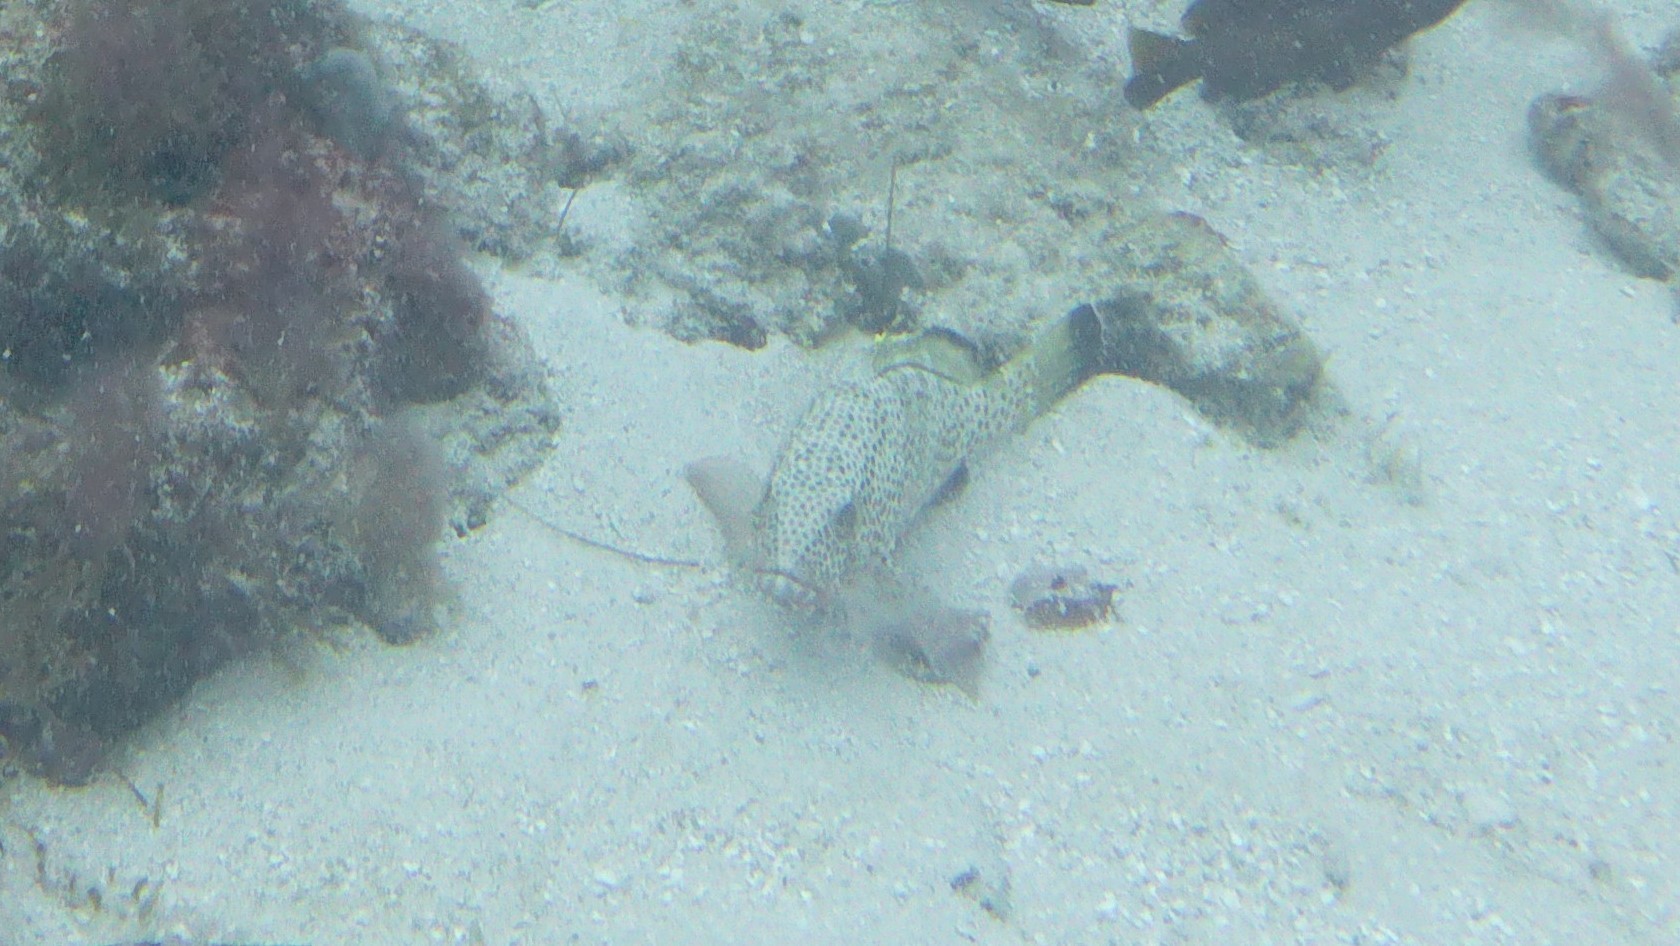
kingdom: Animalia
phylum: Chordata
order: Perciformes
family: Serranidae
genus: Epinephelus
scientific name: Epinephelus guttatus
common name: Red hind
